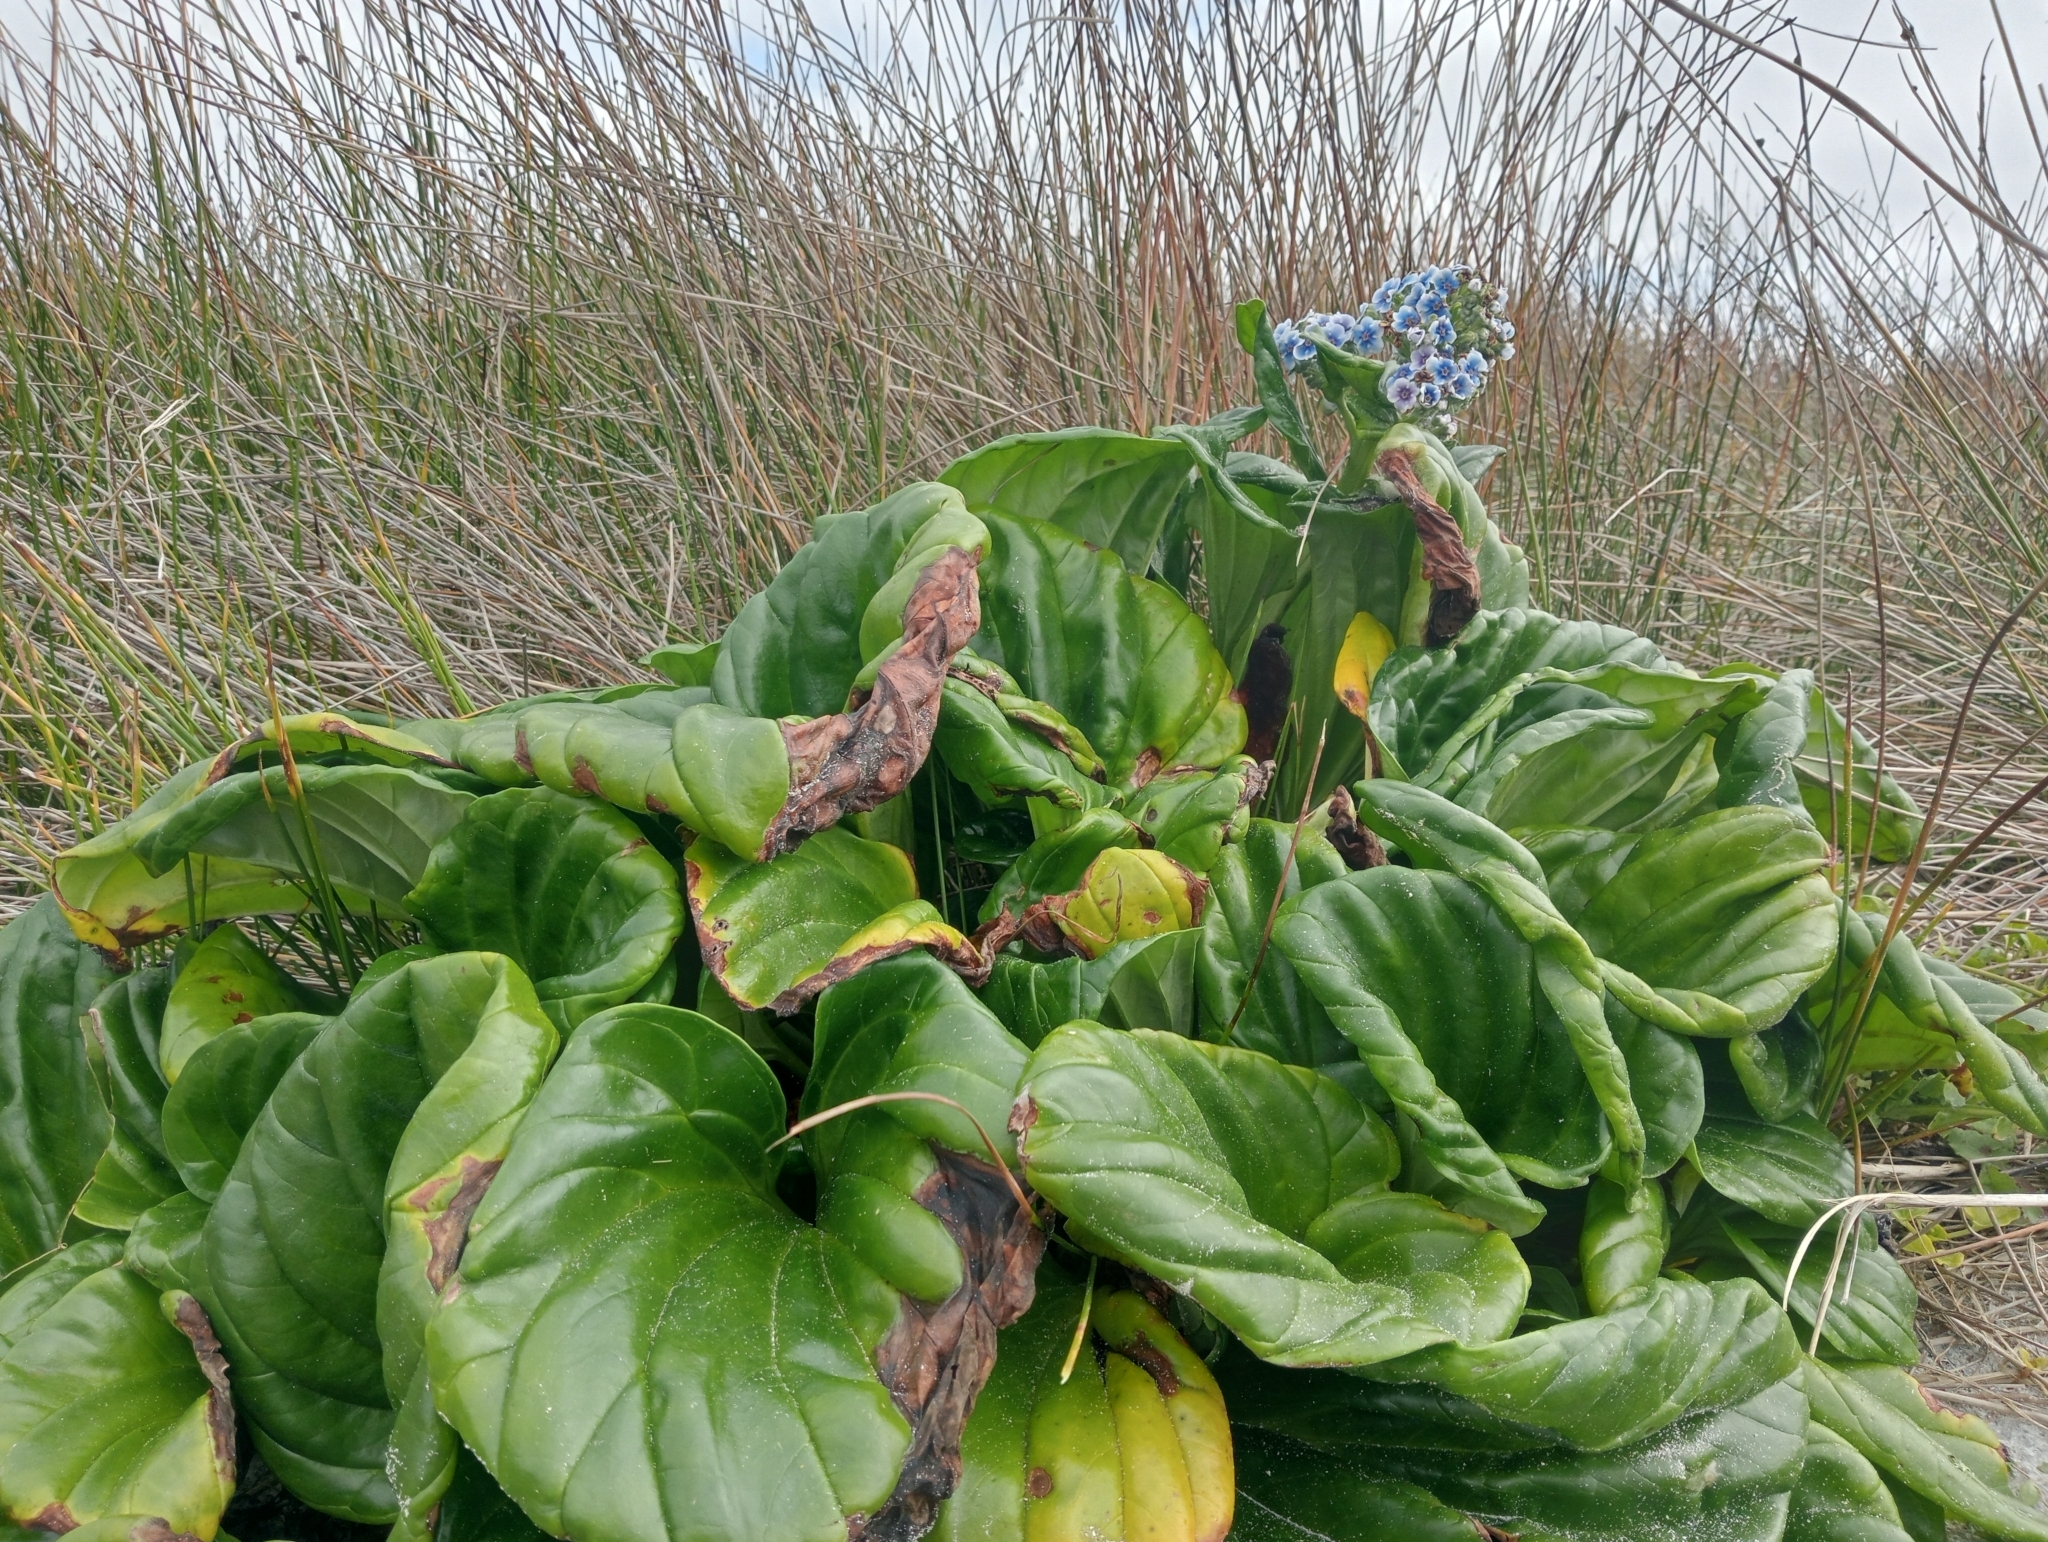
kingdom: Plantae
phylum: Tracheophyta
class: Magnoliopsida
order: Boraginales
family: Boraginaceae
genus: Myosotidium
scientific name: Myosotidium hortensia
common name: Giant forget-me-not
